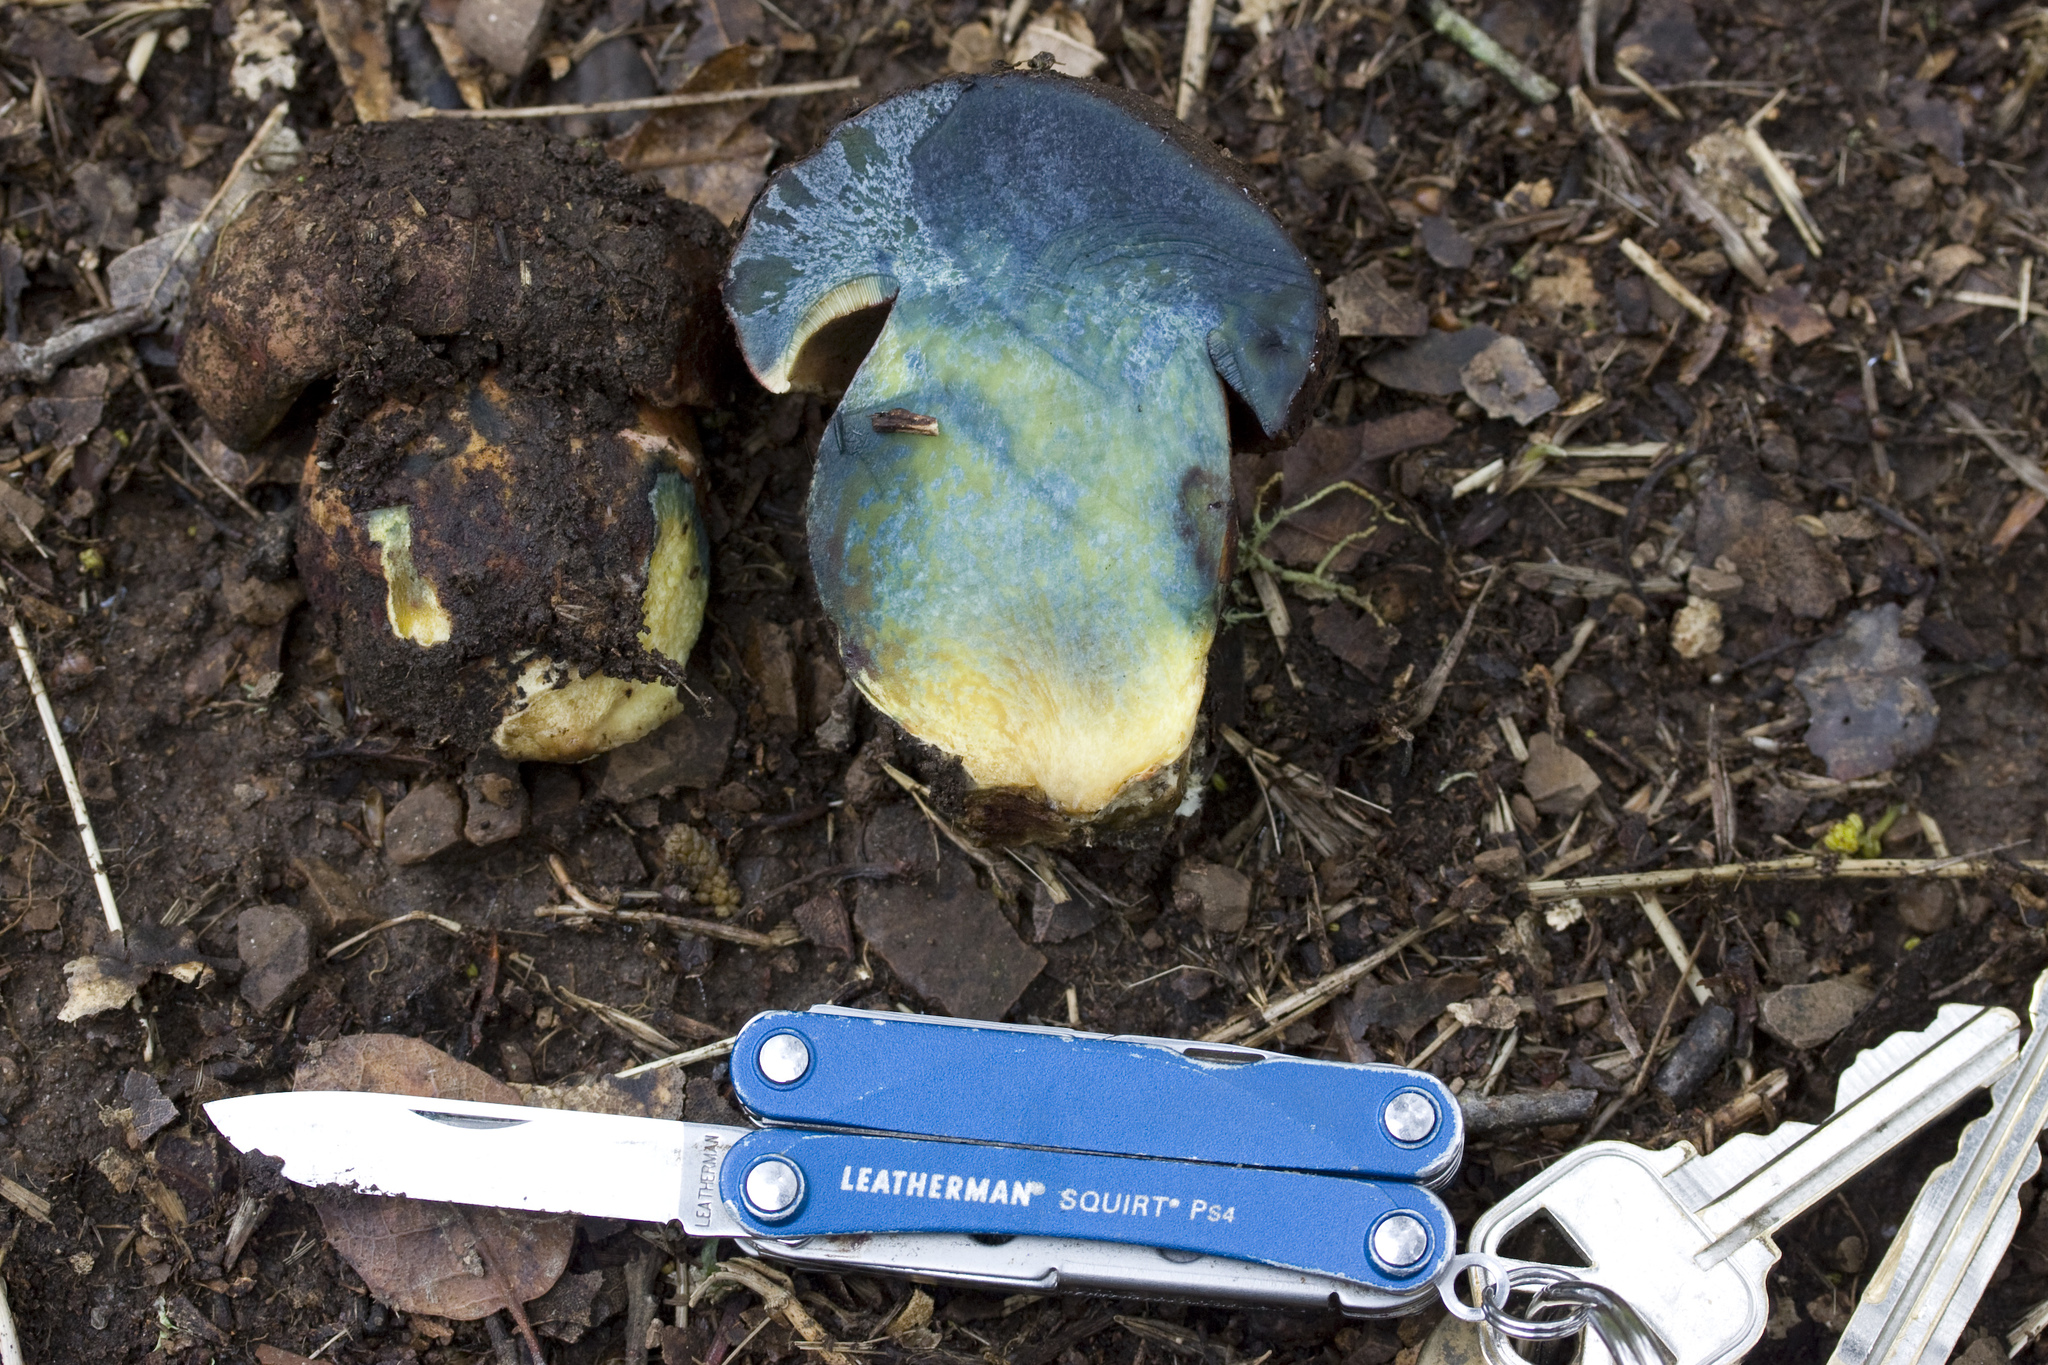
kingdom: Fungi
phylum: Basidiomycota
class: Agaricomycetes
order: Boletales
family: Boletaceae
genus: Suillellus
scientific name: Suillellus amygdalinus
